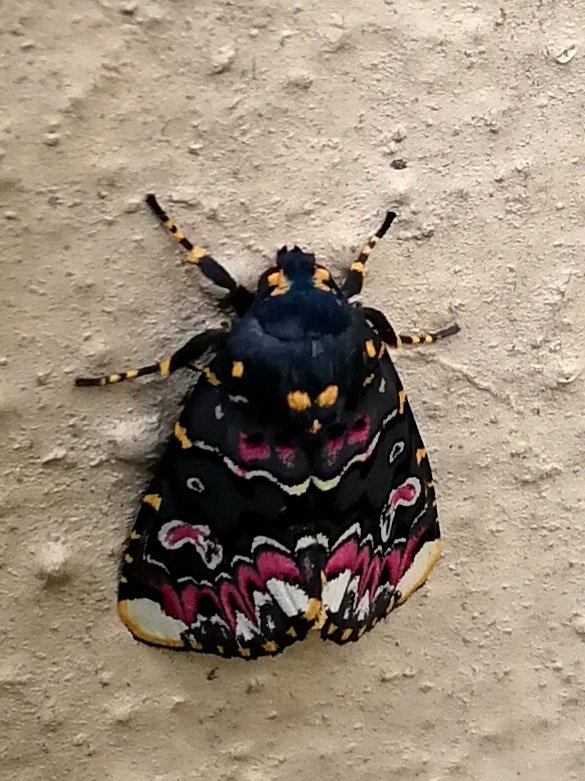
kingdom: Animalia
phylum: Arthropoda
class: Insecta
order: Lepidoptera
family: Noctuidae
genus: Polytela
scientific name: Polytela gloriosae
